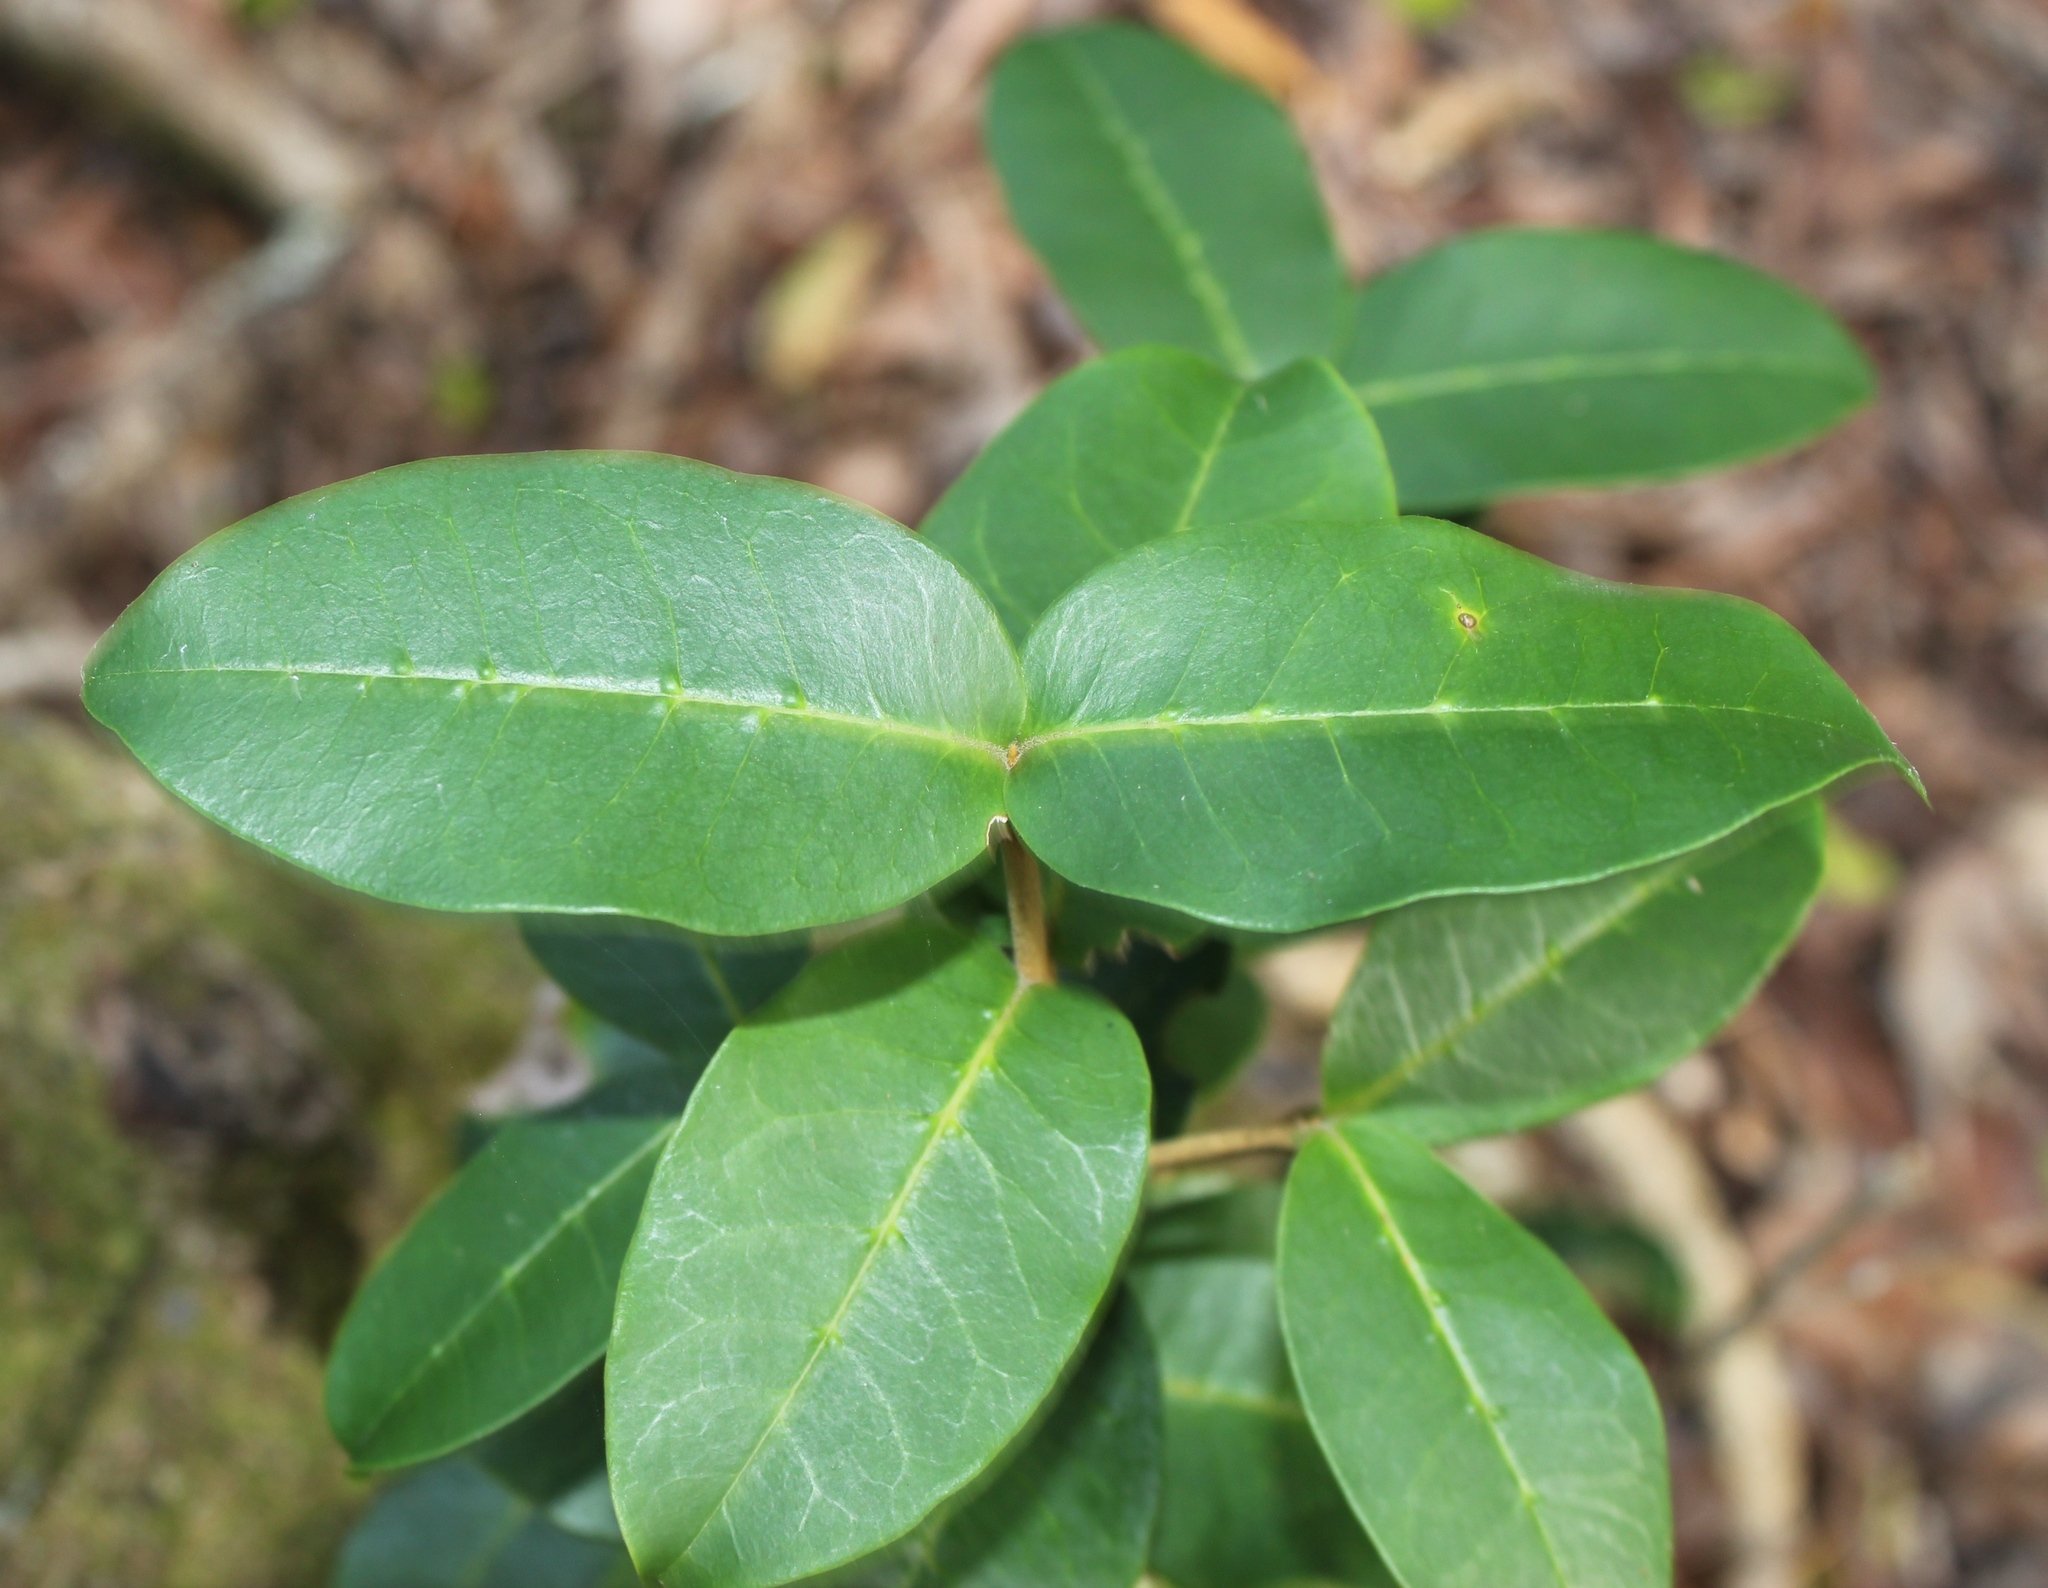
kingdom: Plantae
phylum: Tracheophyta
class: Magnoliopsida
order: Lamiales
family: Oleaceae
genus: Noronhia
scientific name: Noronhia foveolata
